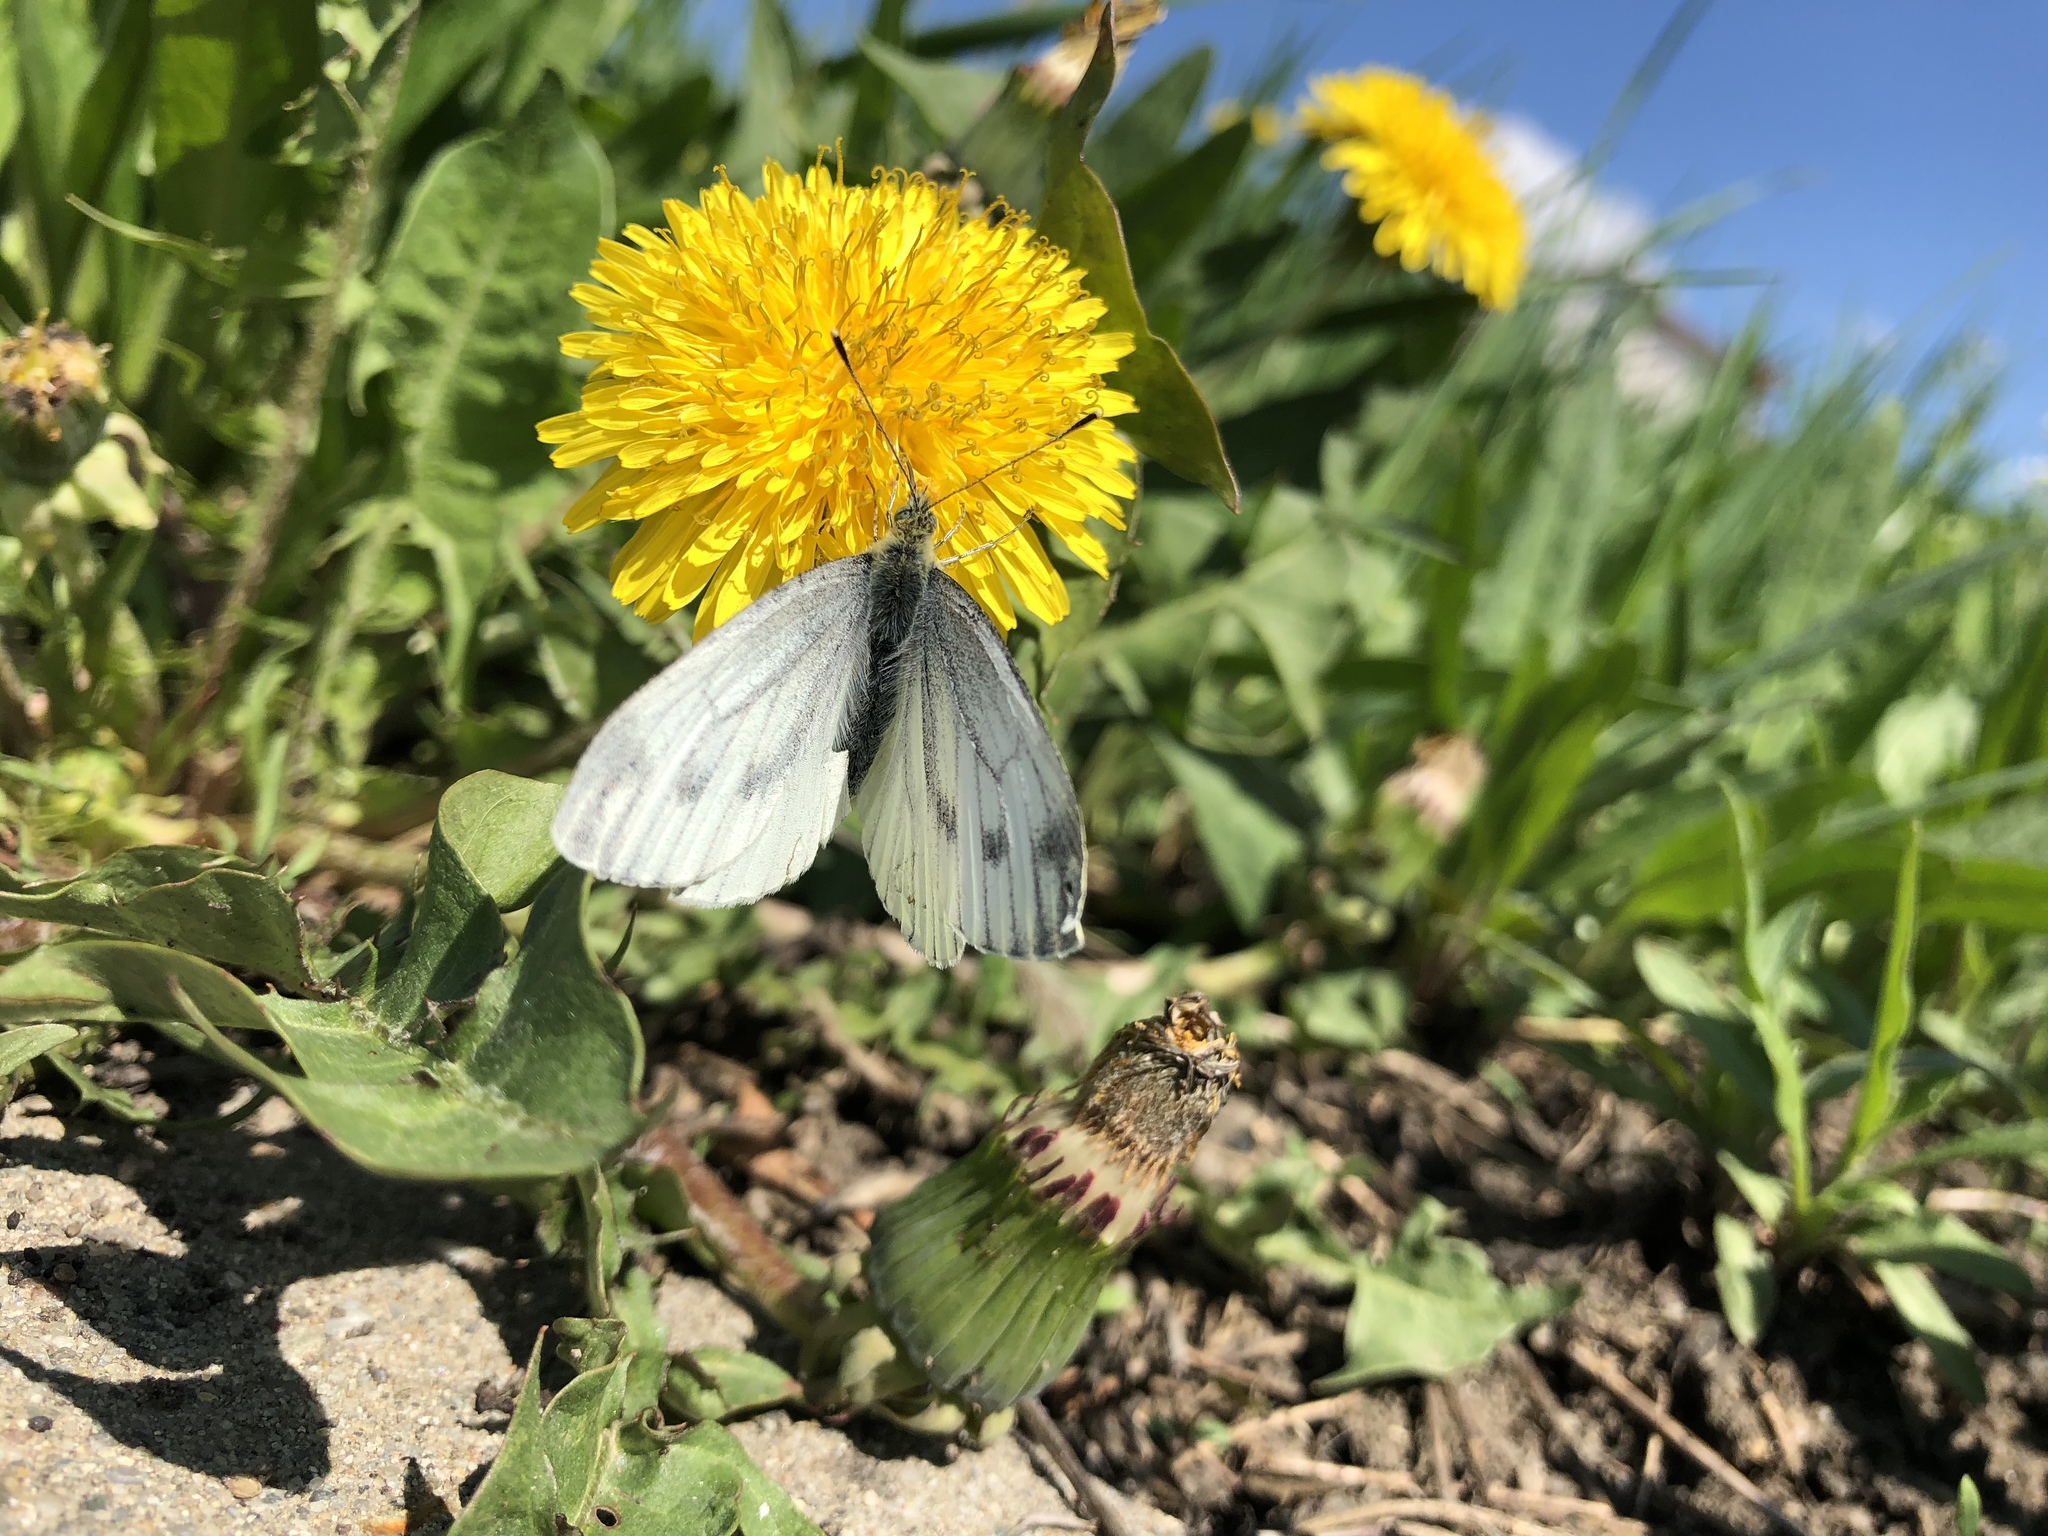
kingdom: Animalia
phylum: Arthropoda
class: Insecta
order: Lepidoptera
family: Pieridae
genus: Pieris
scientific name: Pieris napi
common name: Green-veined white
